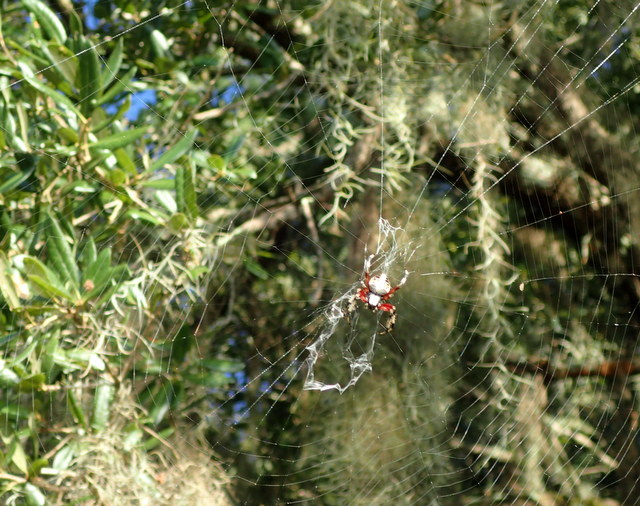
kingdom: Animalia
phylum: Arthropoda
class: Arachnida
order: Araneae
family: Araneidae
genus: Neoscona
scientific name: Neoscona domiciliorum
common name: Red-femured spotted orbweaver
